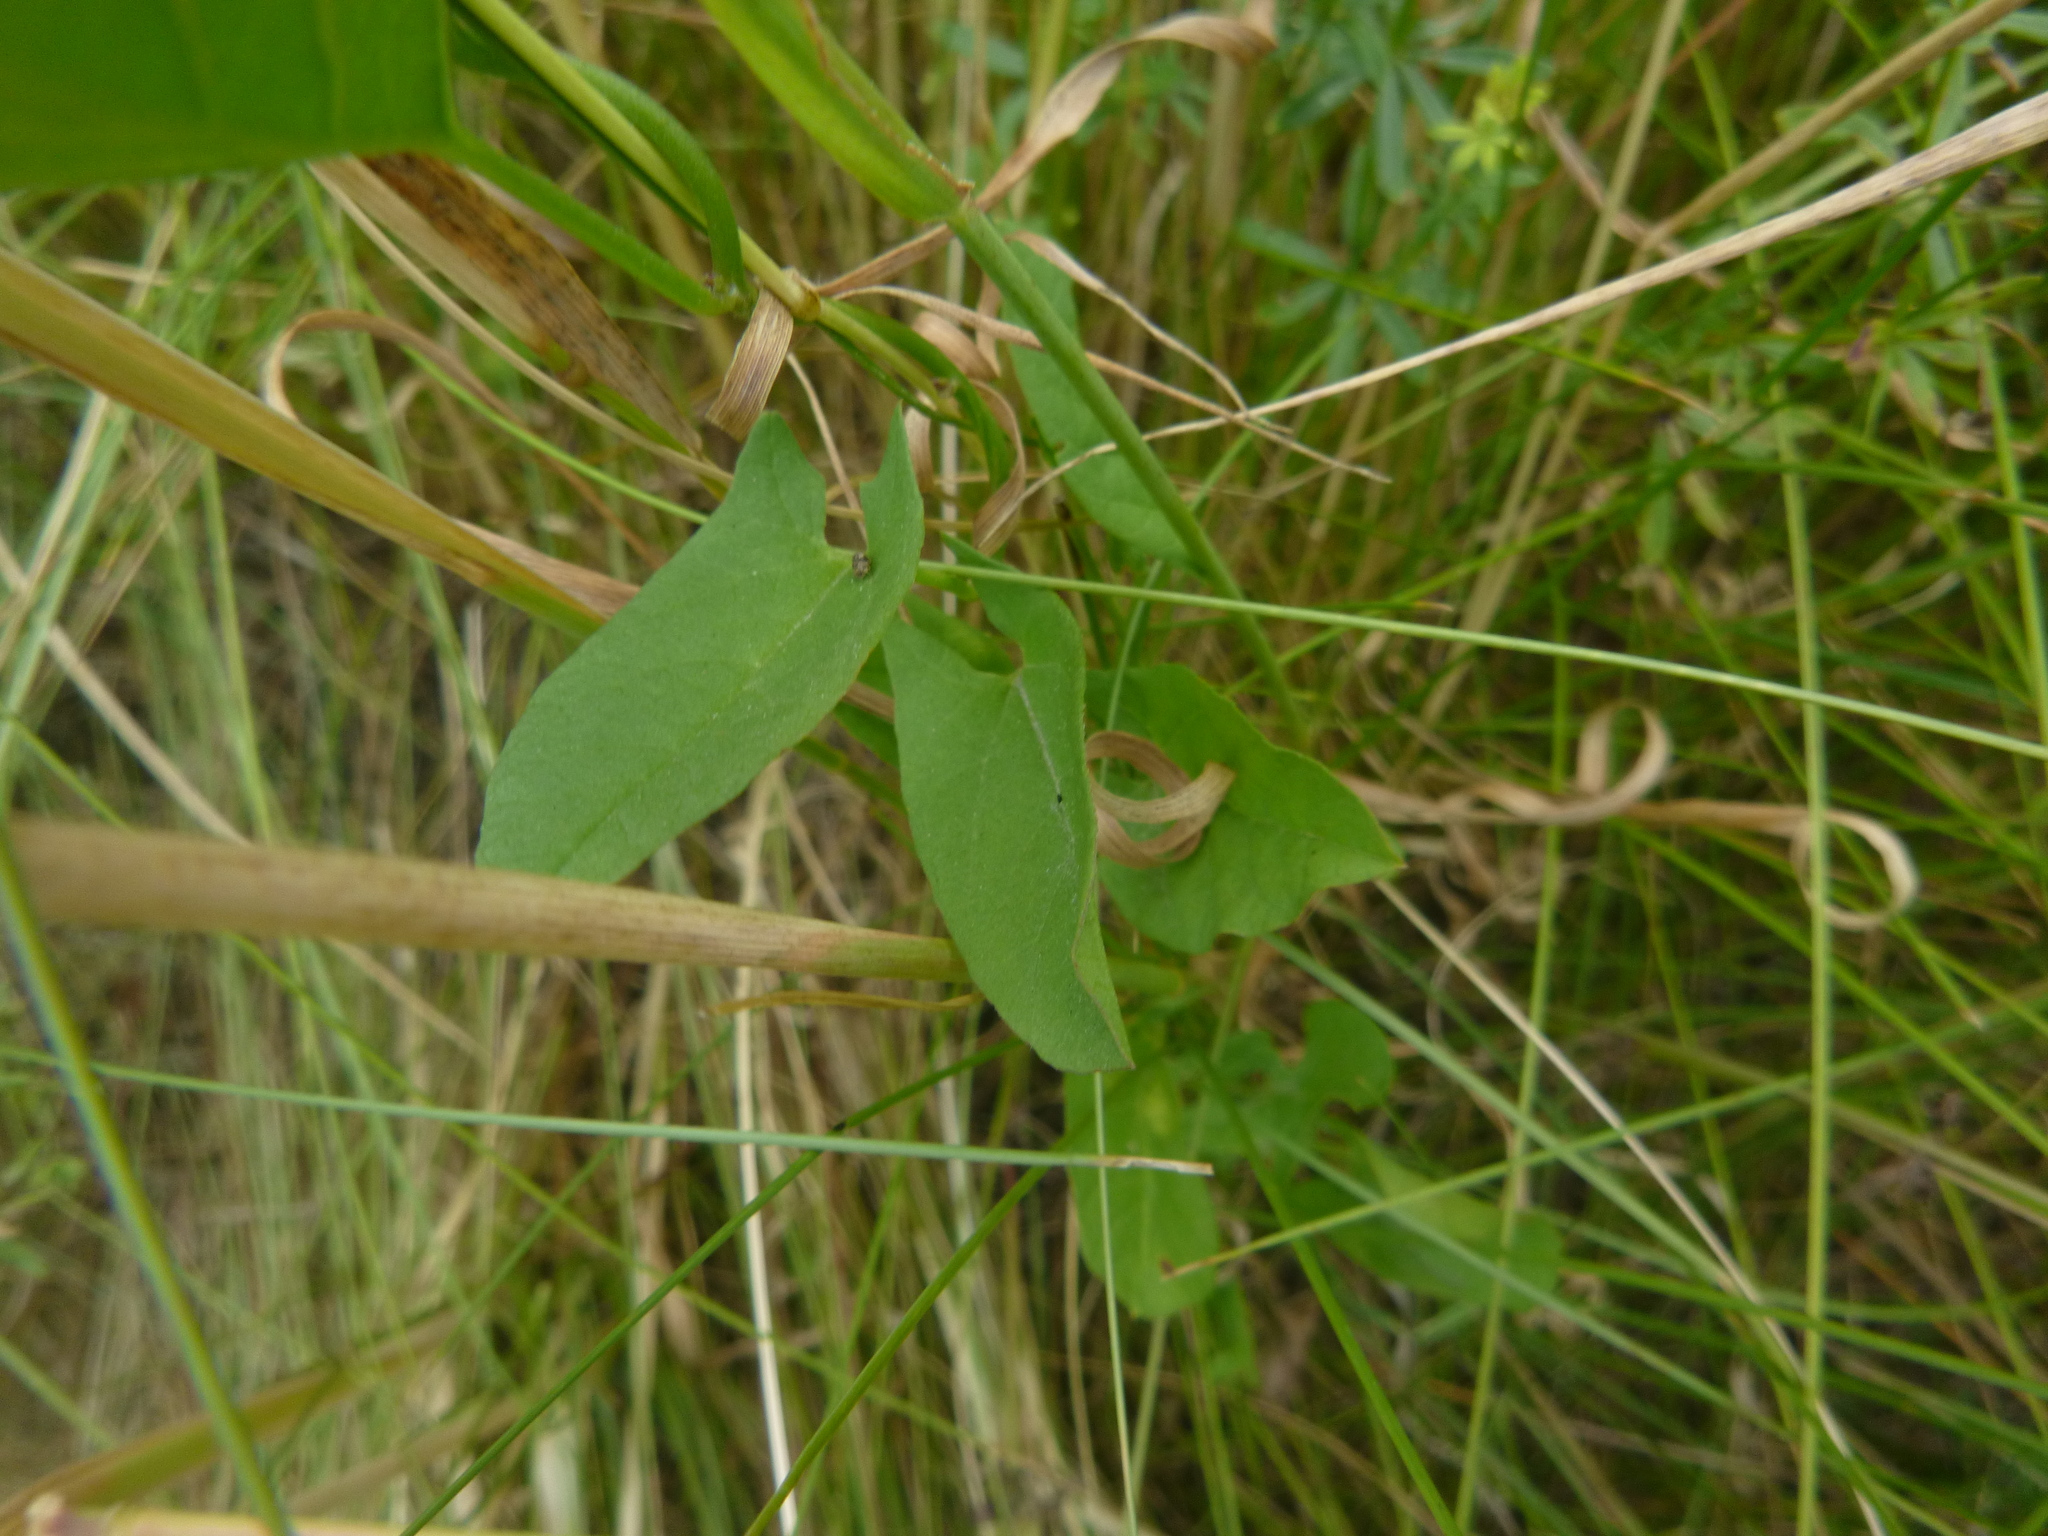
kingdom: Plantae
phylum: Tracheophyta
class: Magnoliopsida
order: Solanales
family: Convolvulaceae
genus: Convolvulus
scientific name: Convolvulus arvensis
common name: Field bindweed
